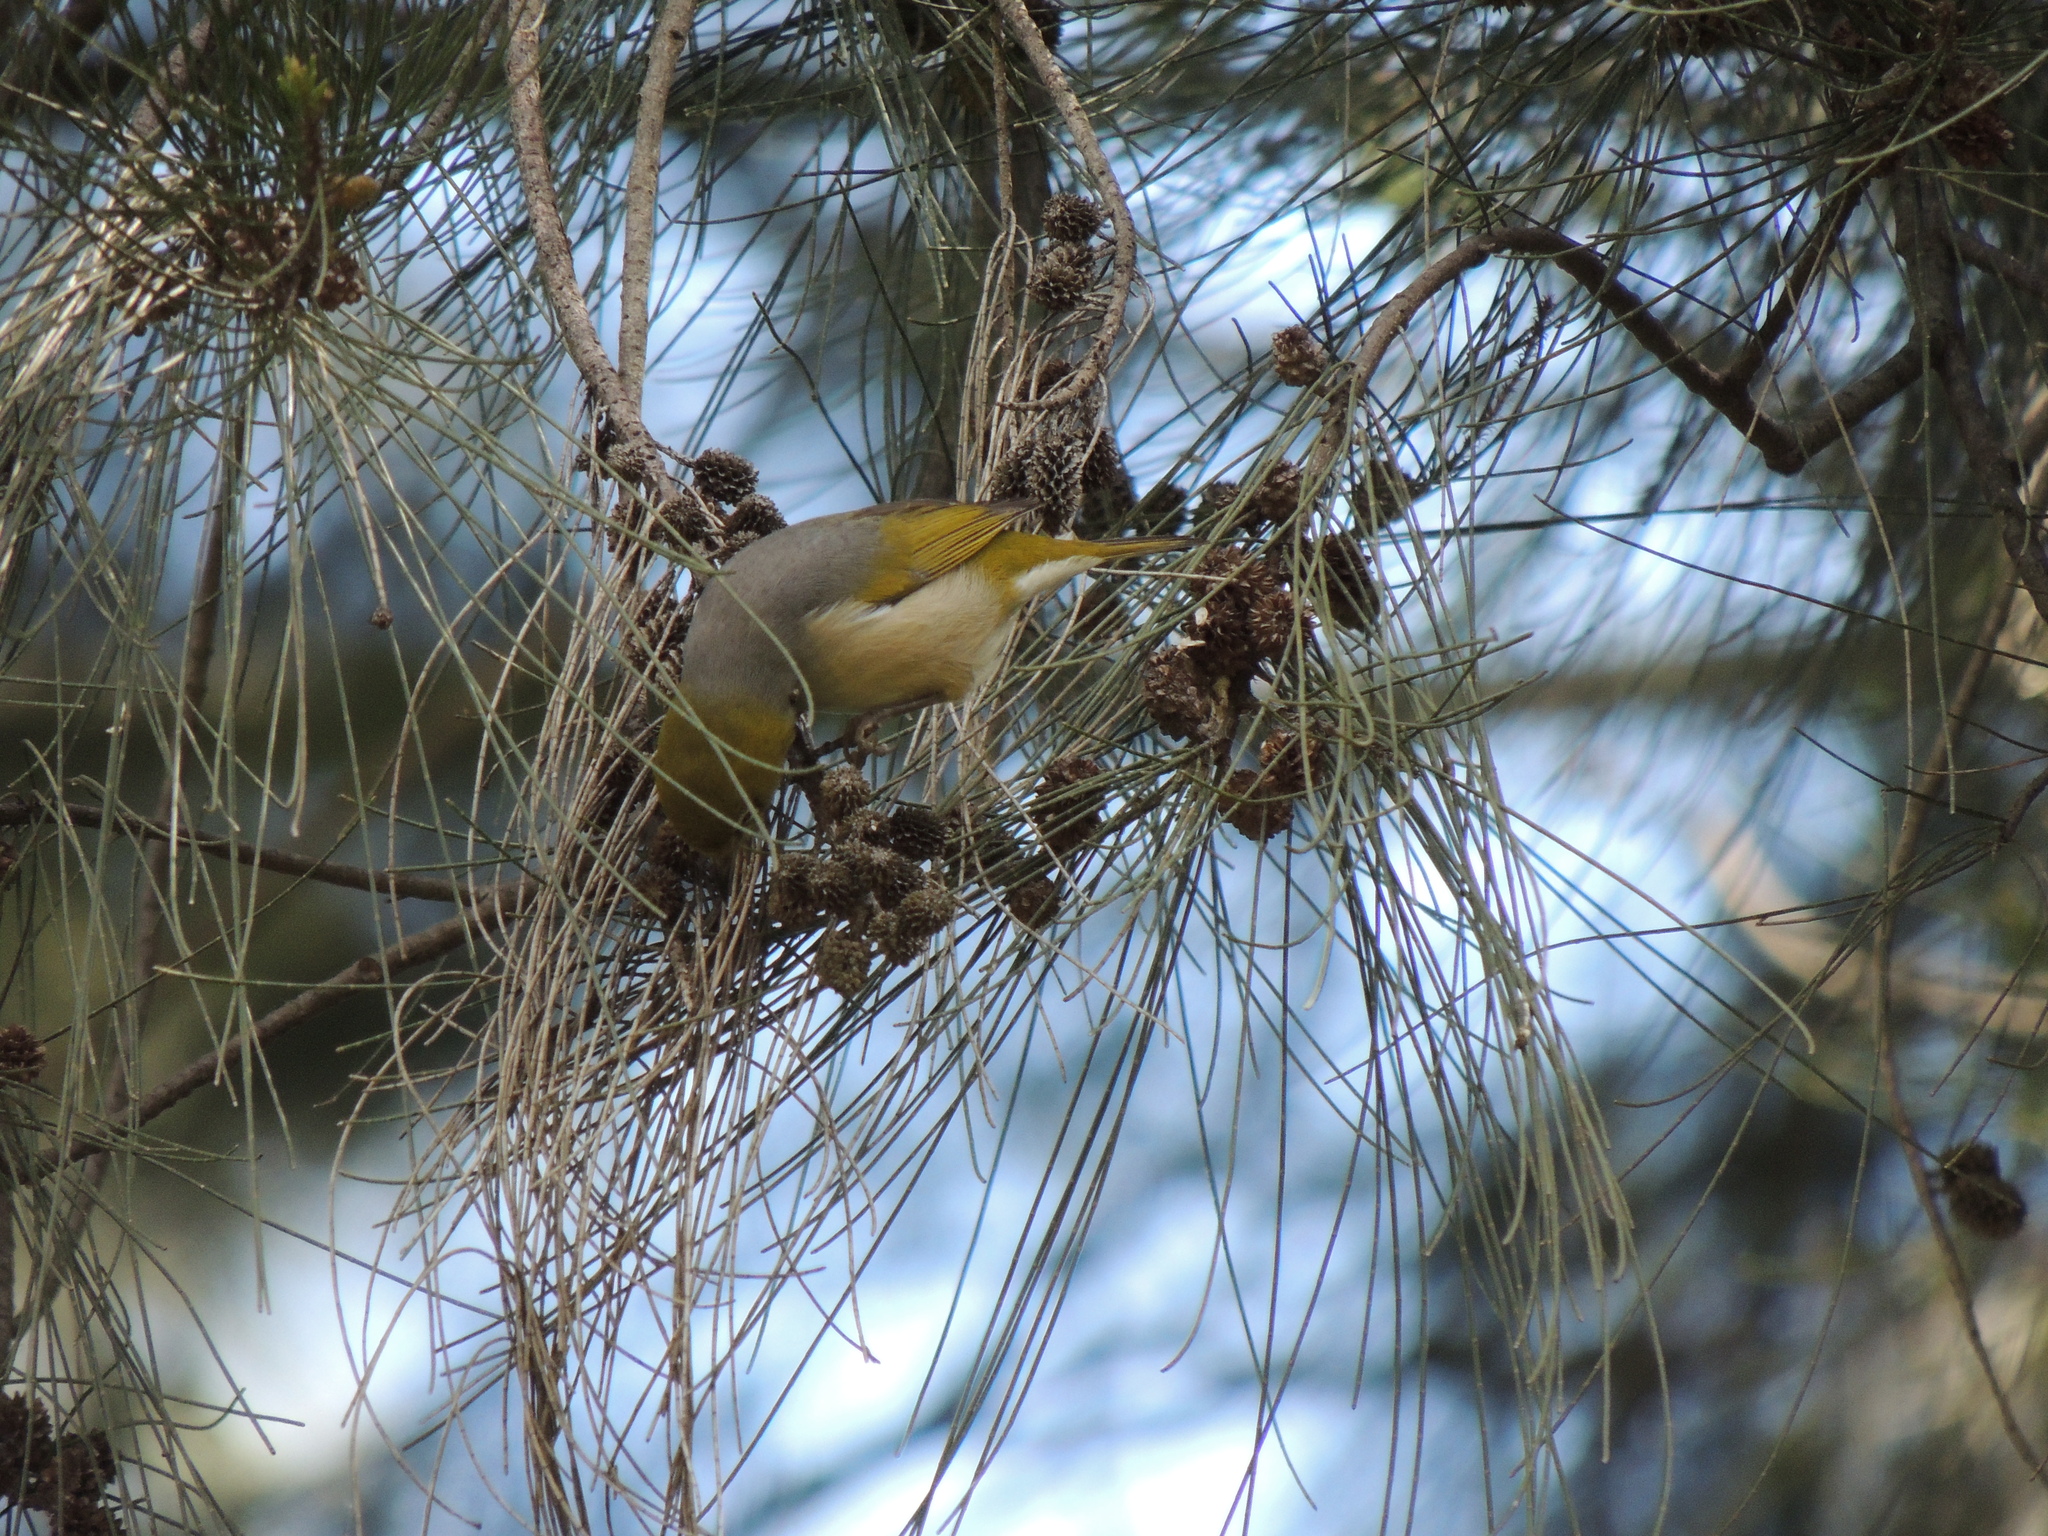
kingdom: Animalia
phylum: Chordata
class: Aves
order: Passeriformes
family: Zosteropidae
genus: Zosterops
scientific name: Zosterops lateralis
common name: Silvereye
